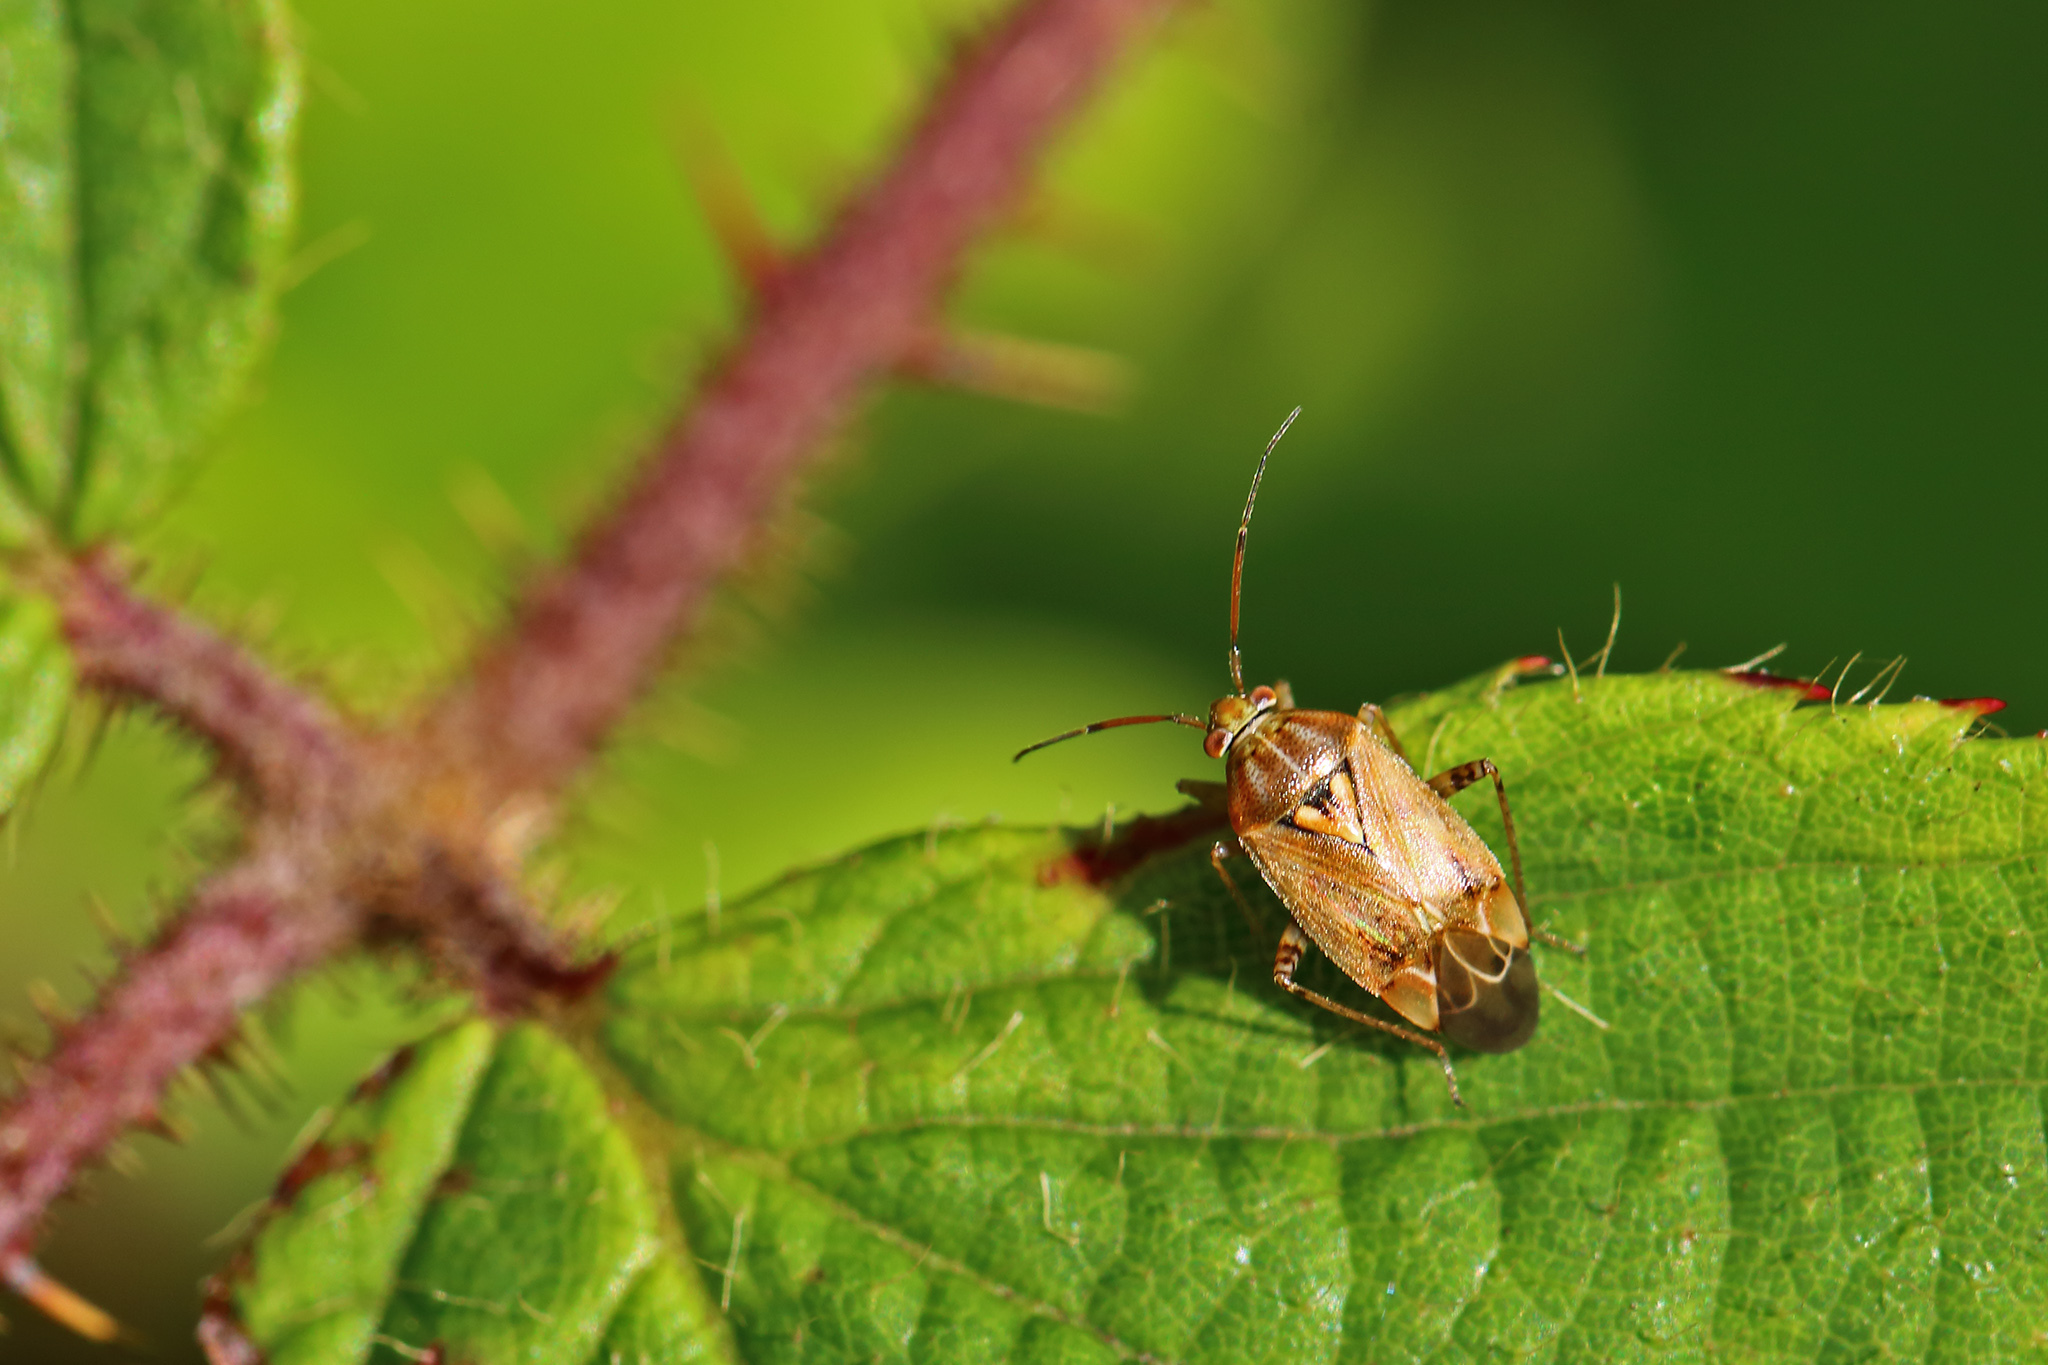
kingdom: Animalia
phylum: Arthropoda
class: Insecta
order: Hemiptera
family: Miridae
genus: Lygus
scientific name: Lygus rugulipennis
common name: European tarnished plant bug
